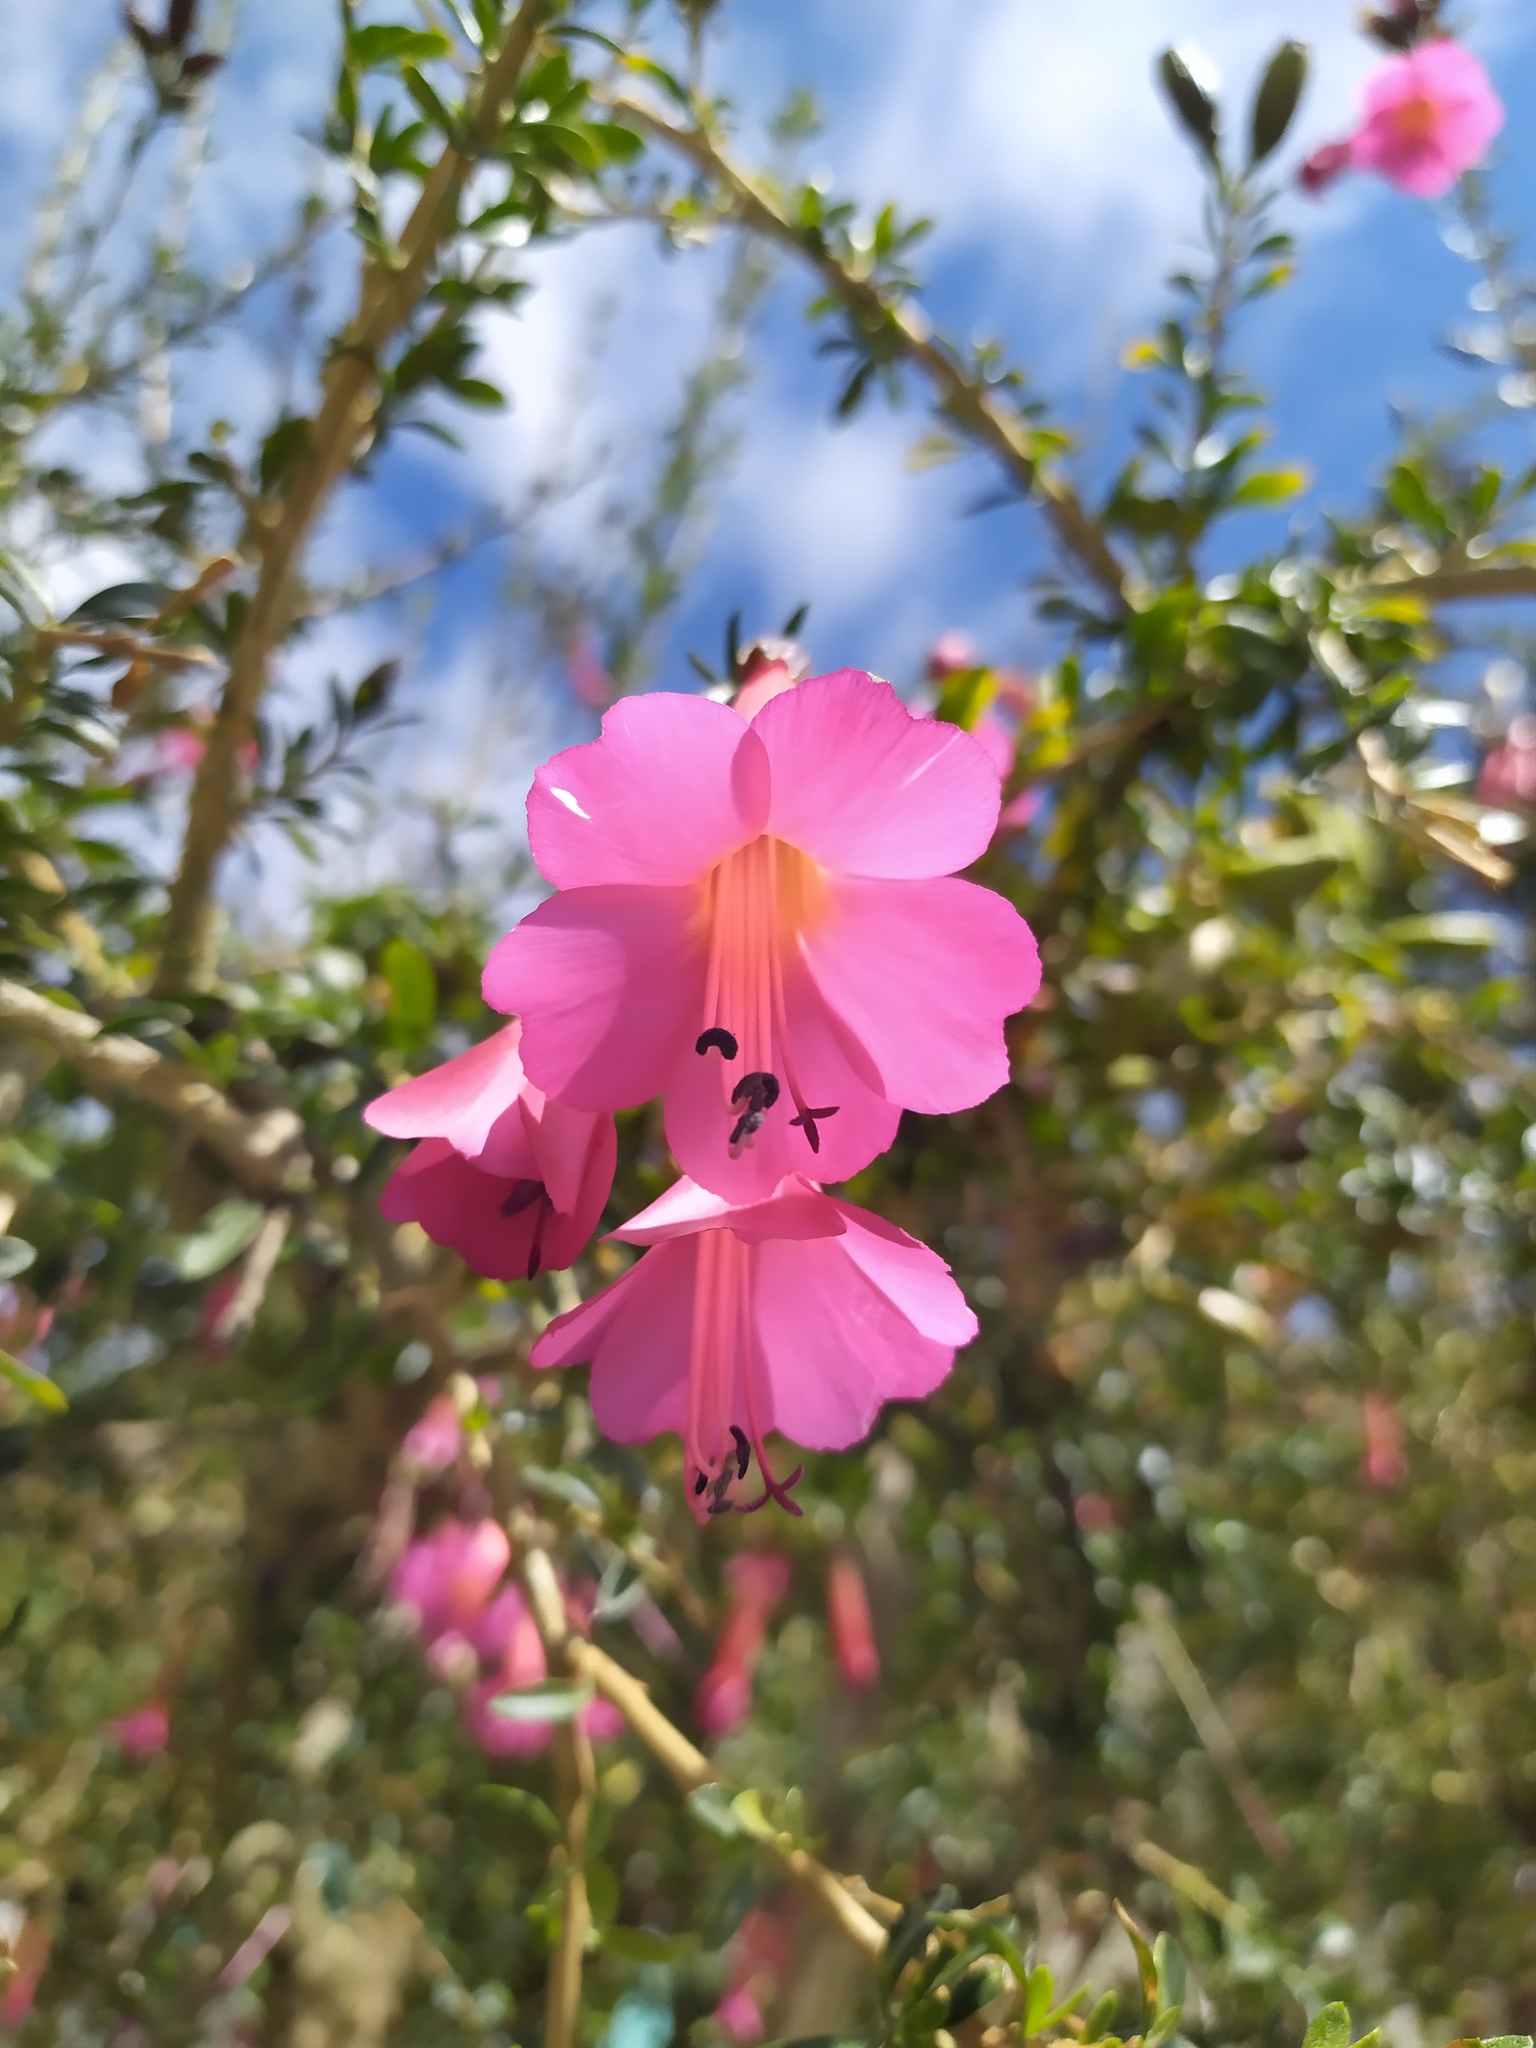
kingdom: Plantae
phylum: Tracheophyta
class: Magnoliopsida
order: Ericales
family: Polemoniaceae
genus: Cantua
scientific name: Cantua buxifolia
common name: Sacred-flower-of-the-incas
